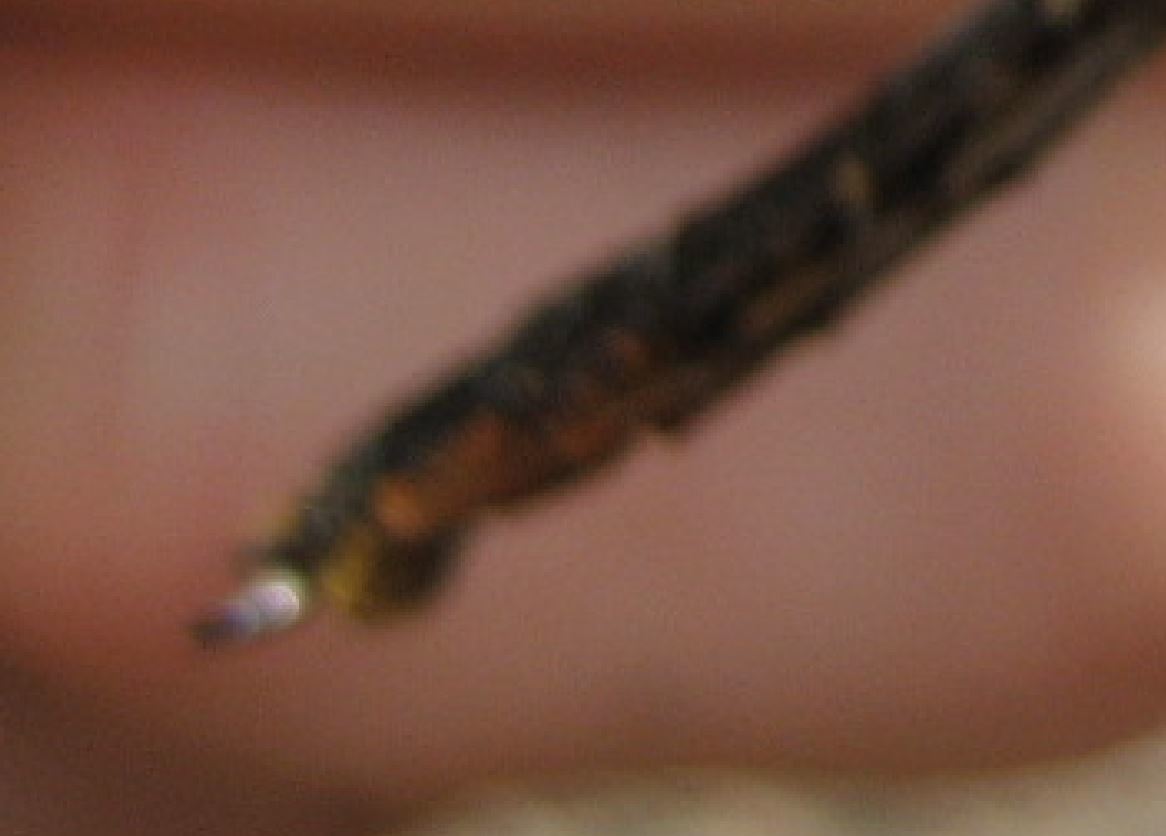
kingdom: Animalia
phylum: Arthropoda
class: Insecta
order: Odonata
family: Gomphidae
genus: Arigomphus
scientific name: Arigomphus cornutus
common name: Horned clubtail
